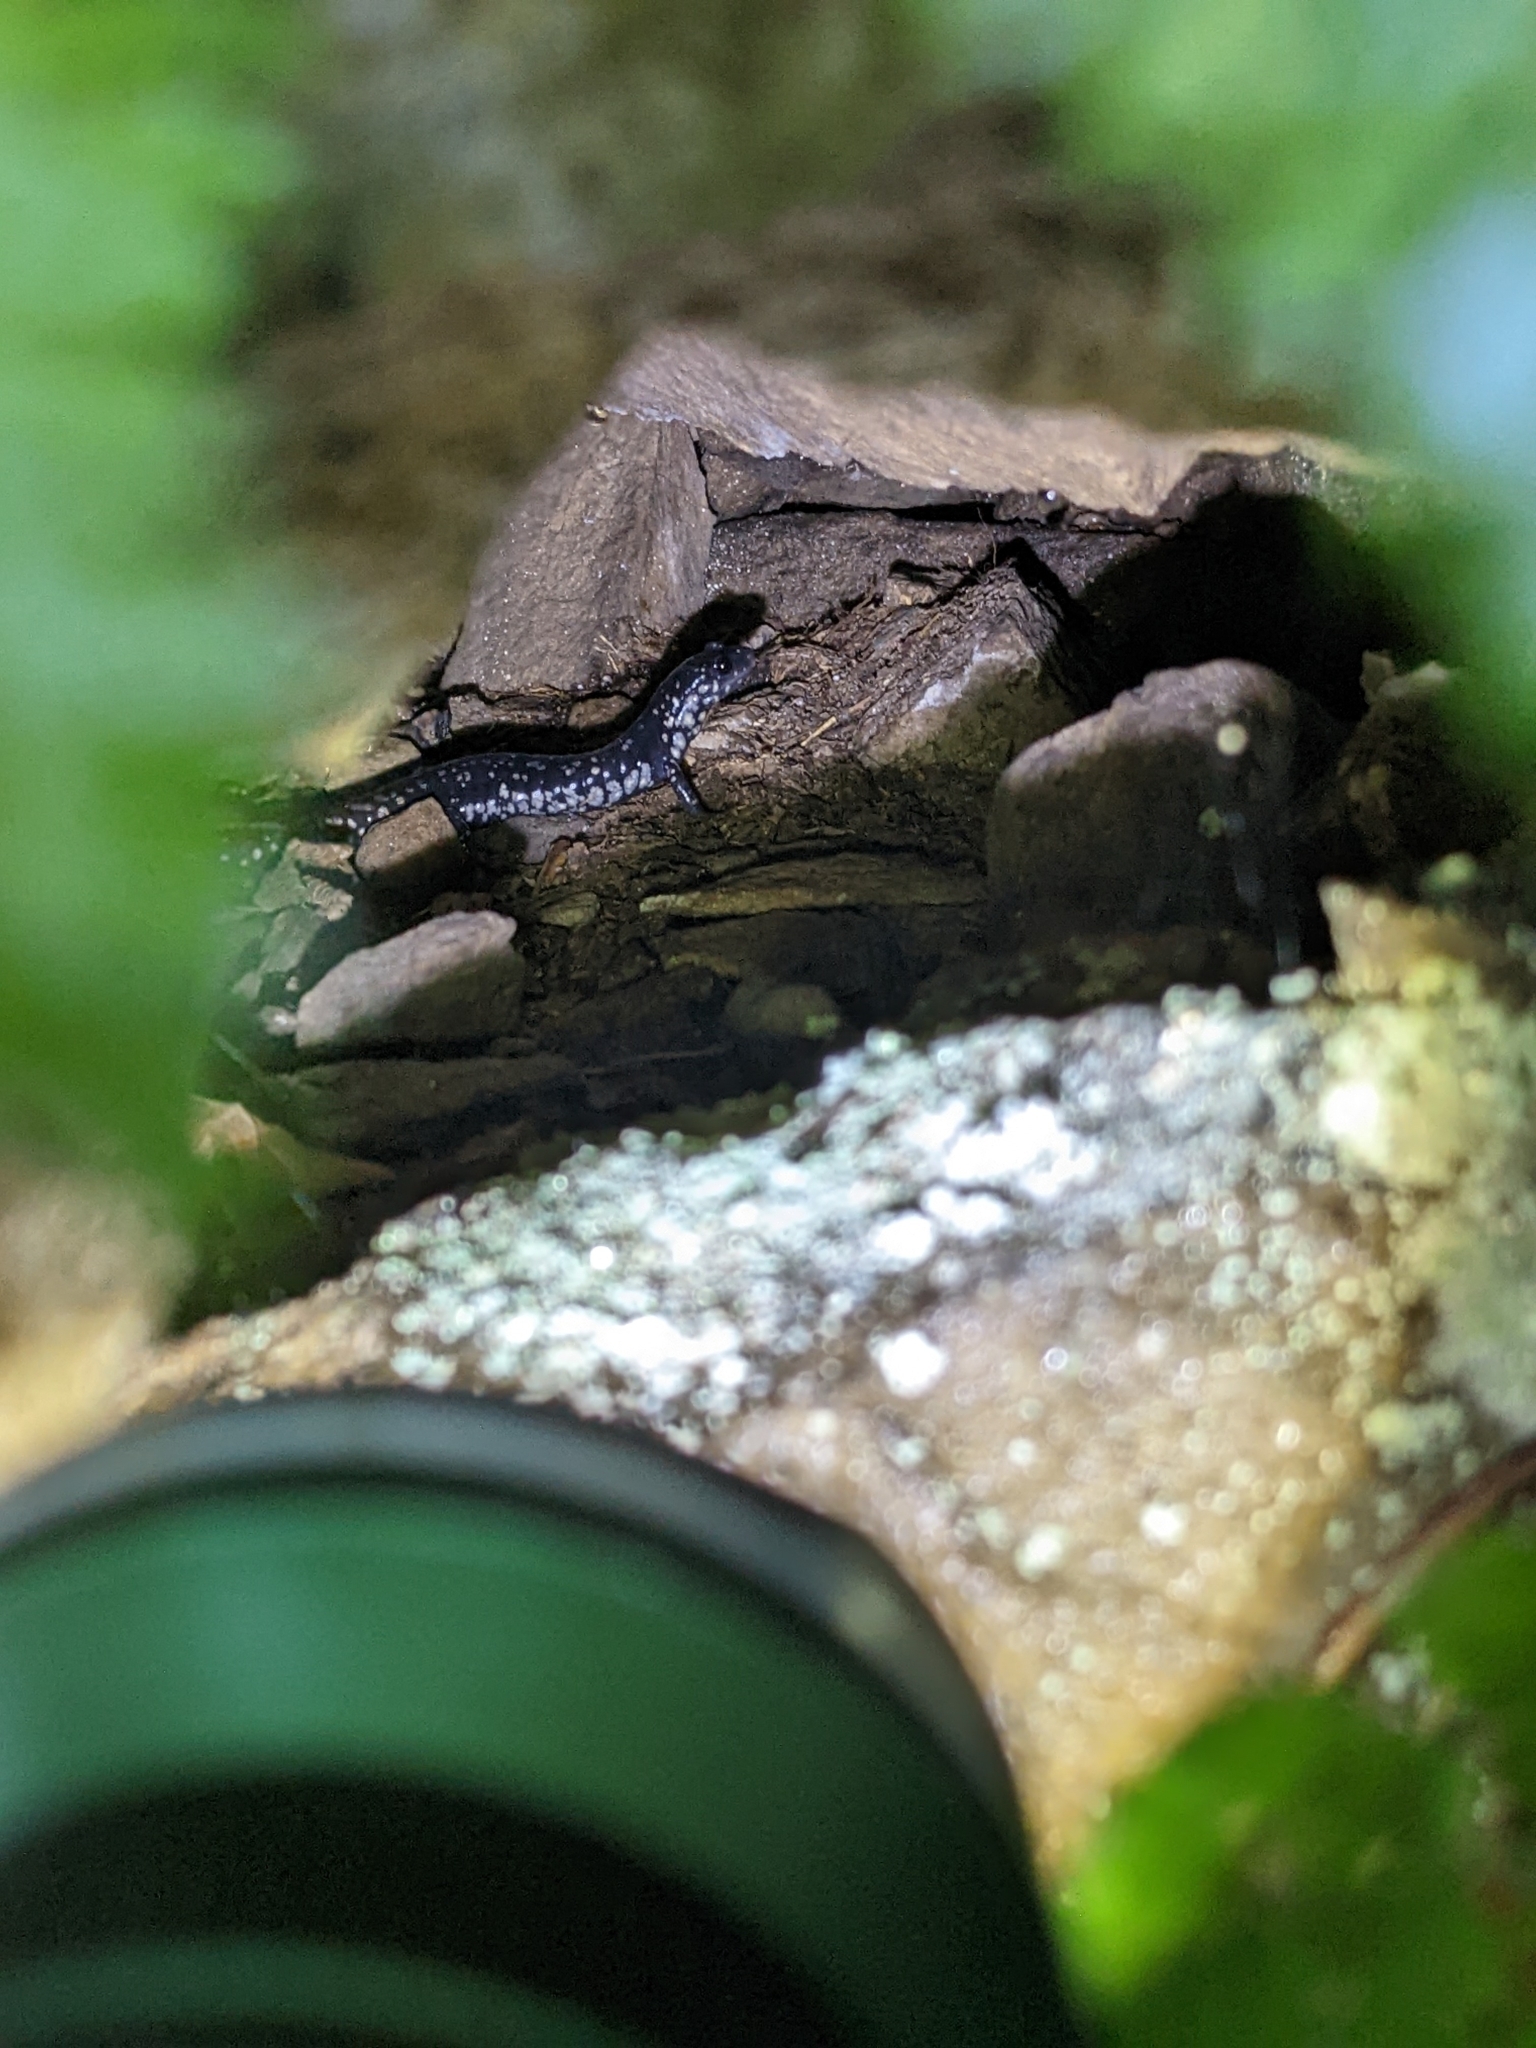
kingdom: Animalia
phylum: Chordata
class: Amphibia
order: Caudata
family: Plethodontidae
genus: Plethodon
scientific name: Plethodon glutinosus
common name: Northern slimy salamander
